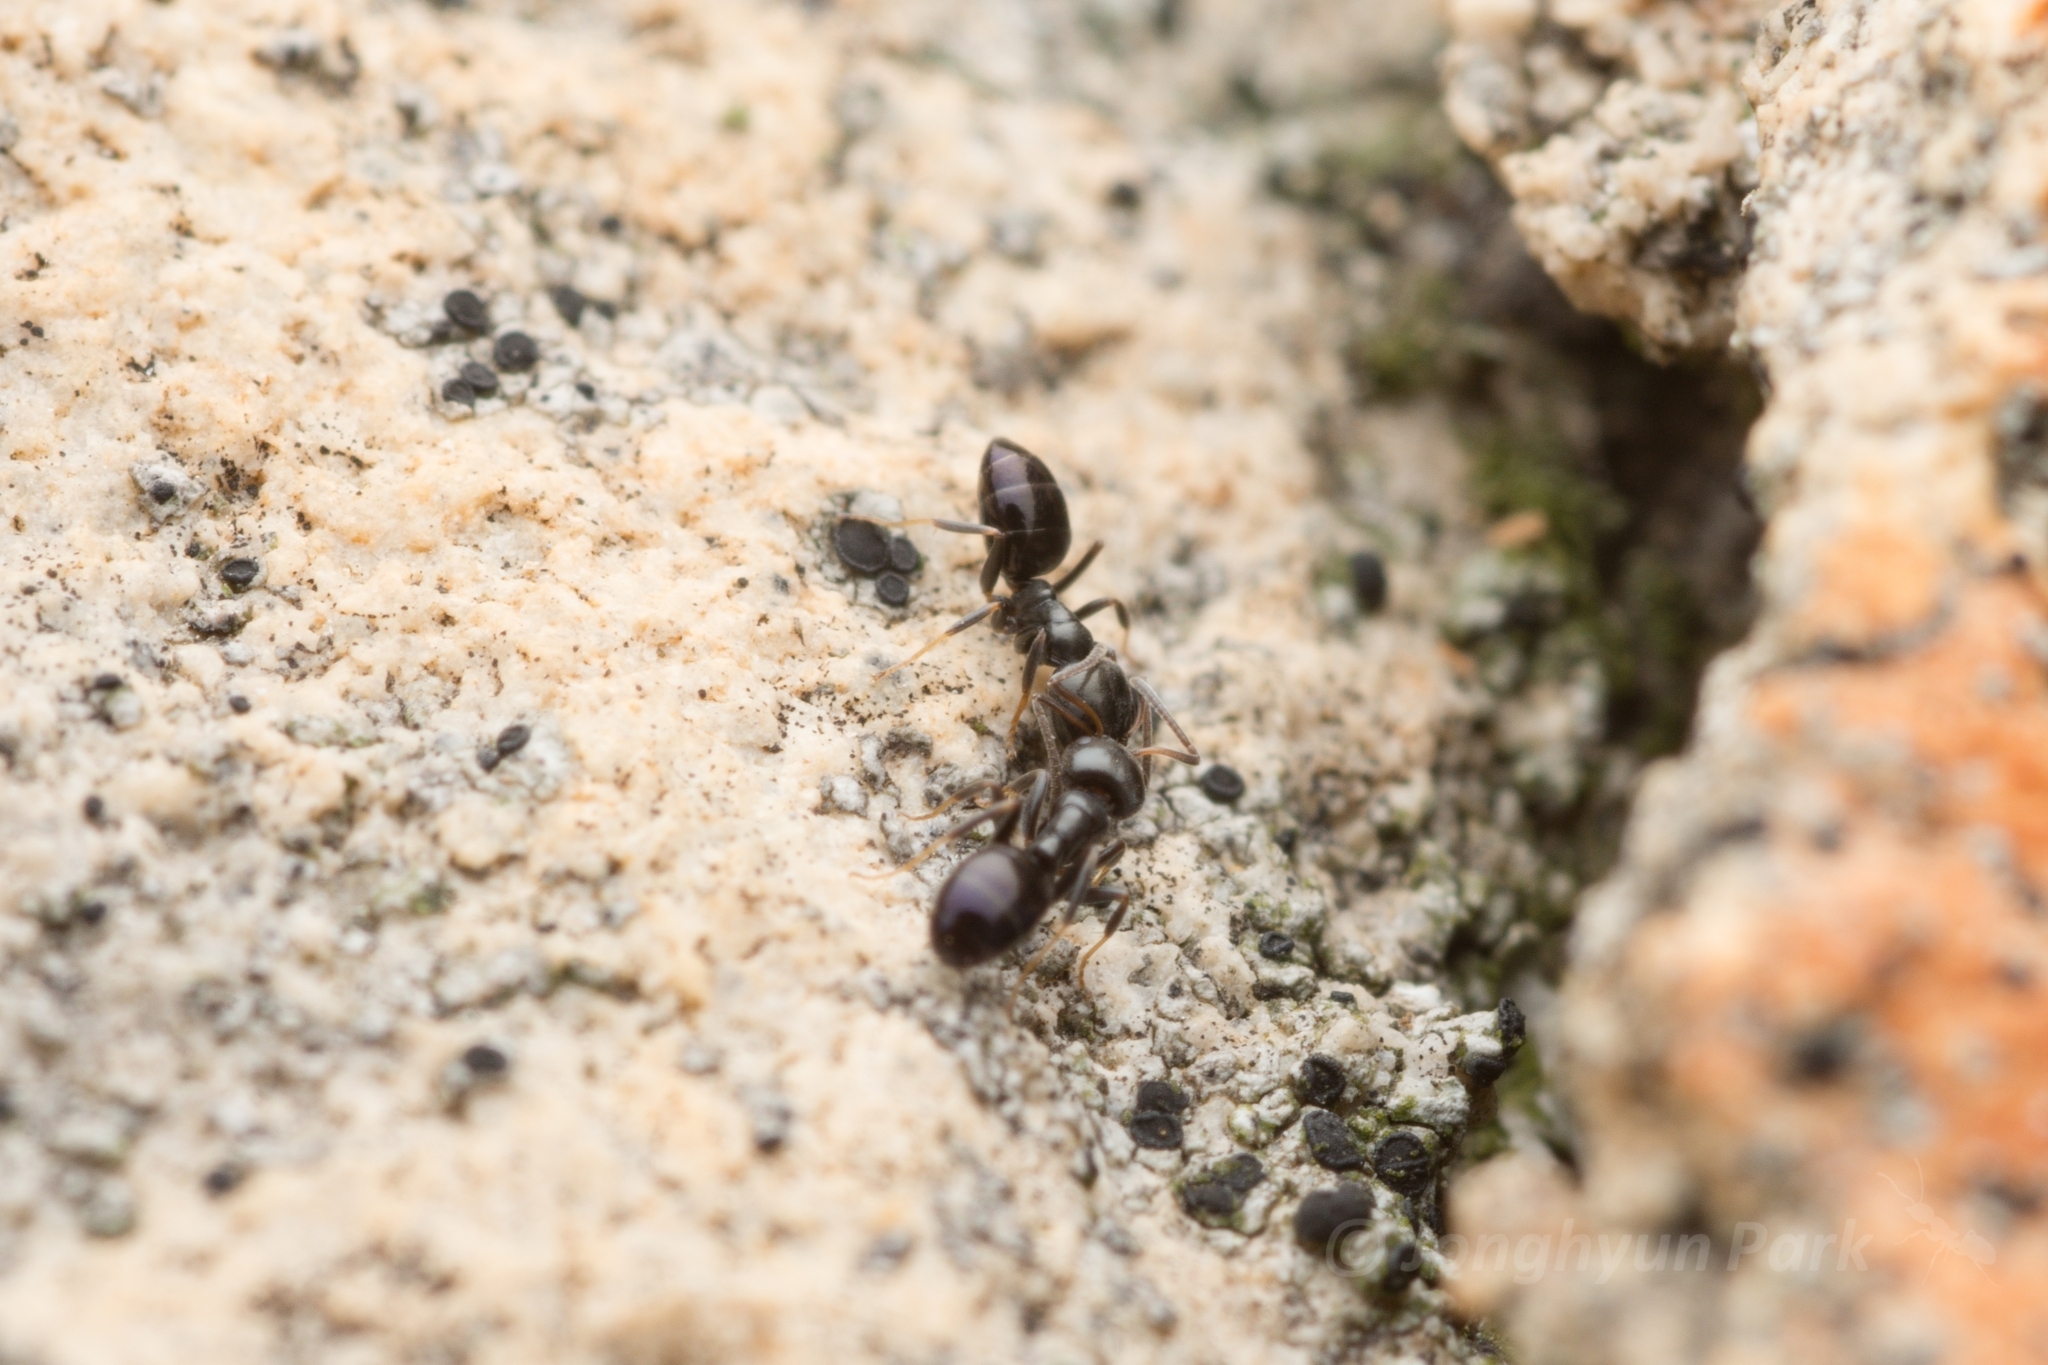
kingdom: Animalia
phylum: Arthropoda
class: Insecta
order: Hymenoptera
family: Formicidae
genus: Ochetellus
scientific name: Ochetellus glaber
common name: Ant
